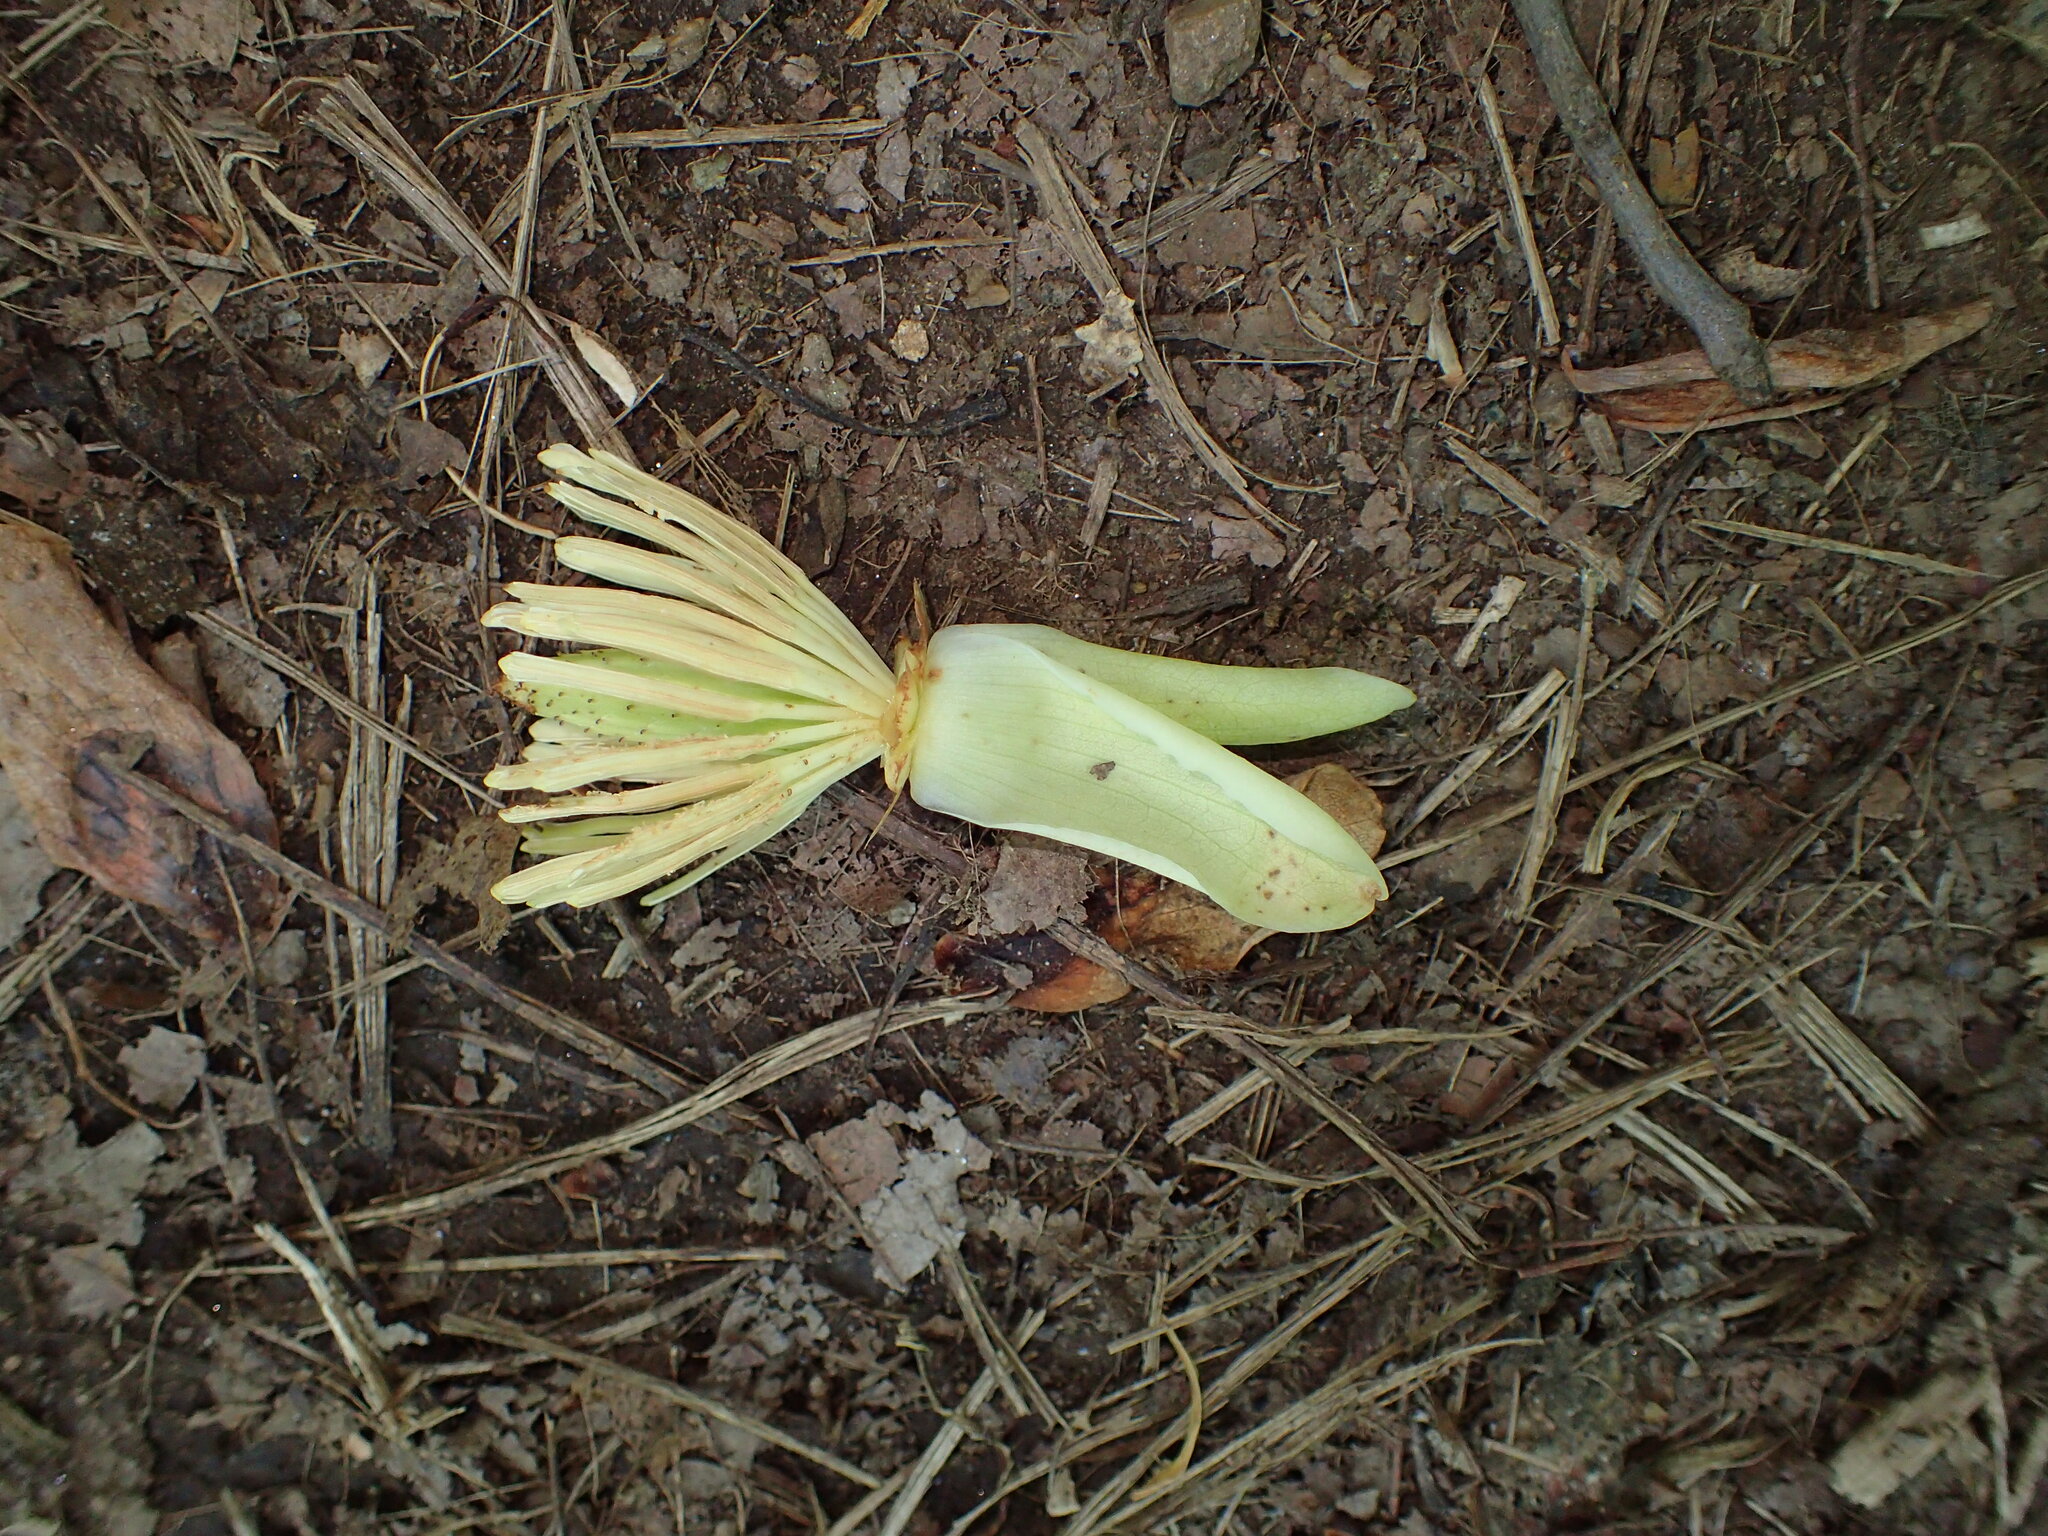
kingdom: Plantae
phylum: Tracheophyta
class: Magnoliopsida
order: Magnoliales
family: Magnoliaceae
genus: Liriodendron
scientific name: Liriodendron tulipifera
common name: Tulip tree
